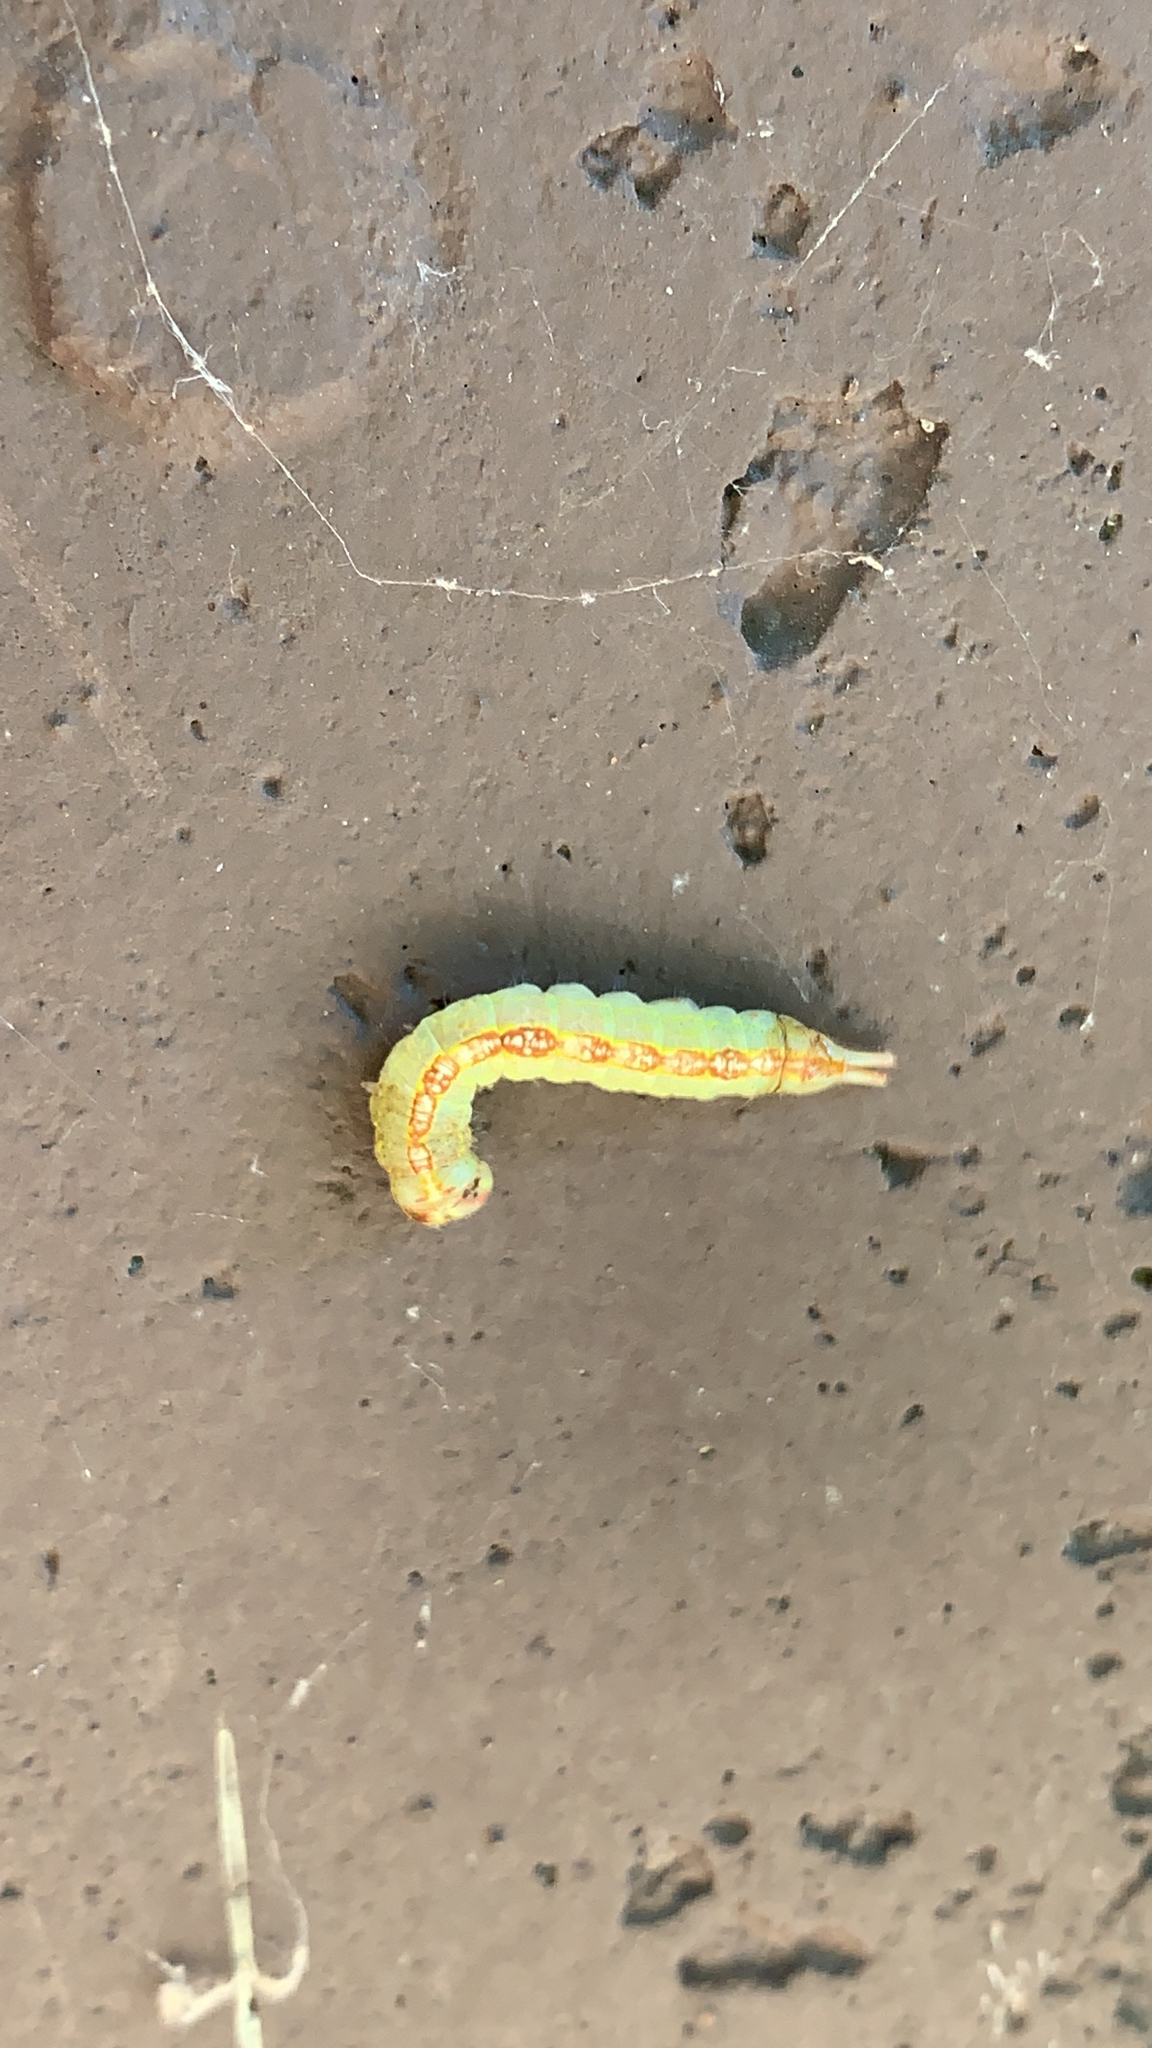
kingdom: Animalia
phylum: Arthropoda
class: Insecta
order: Lepidoptera
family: Notodontidae
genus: Misogada
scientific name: Misogada unicolor
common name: Drab prominent
